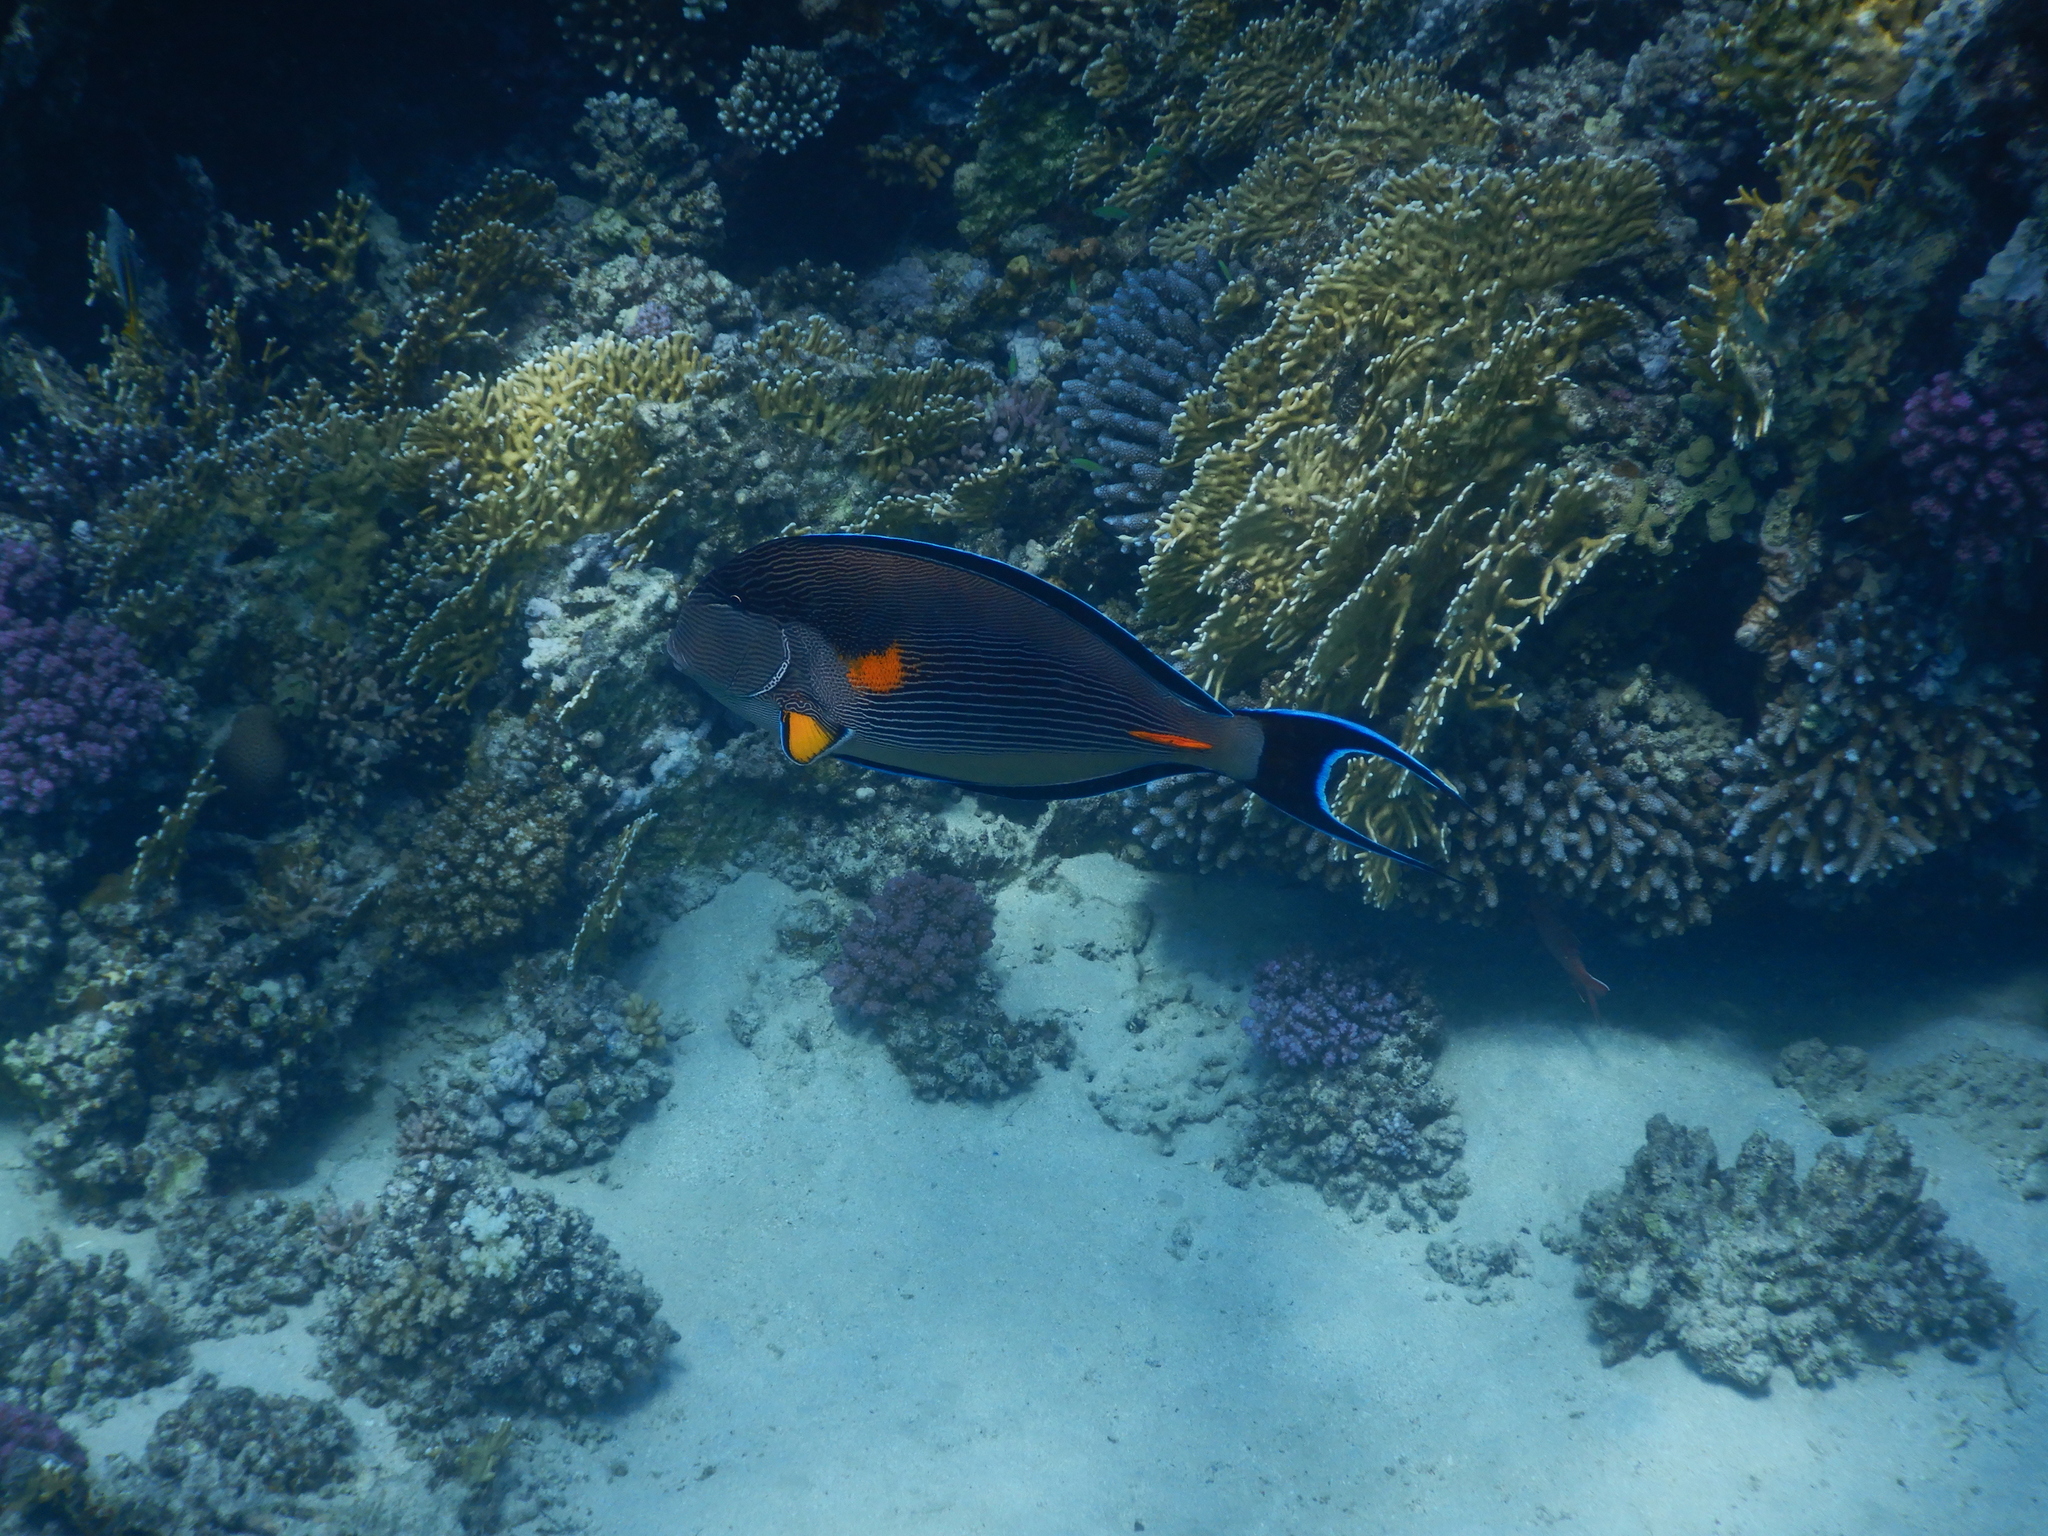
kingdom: Animalia
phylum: Chordata
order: Perciformes
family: Acanthuridae
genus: Acanthurus
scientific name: Acanthurus sohal
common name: Red sea surgeonfish
